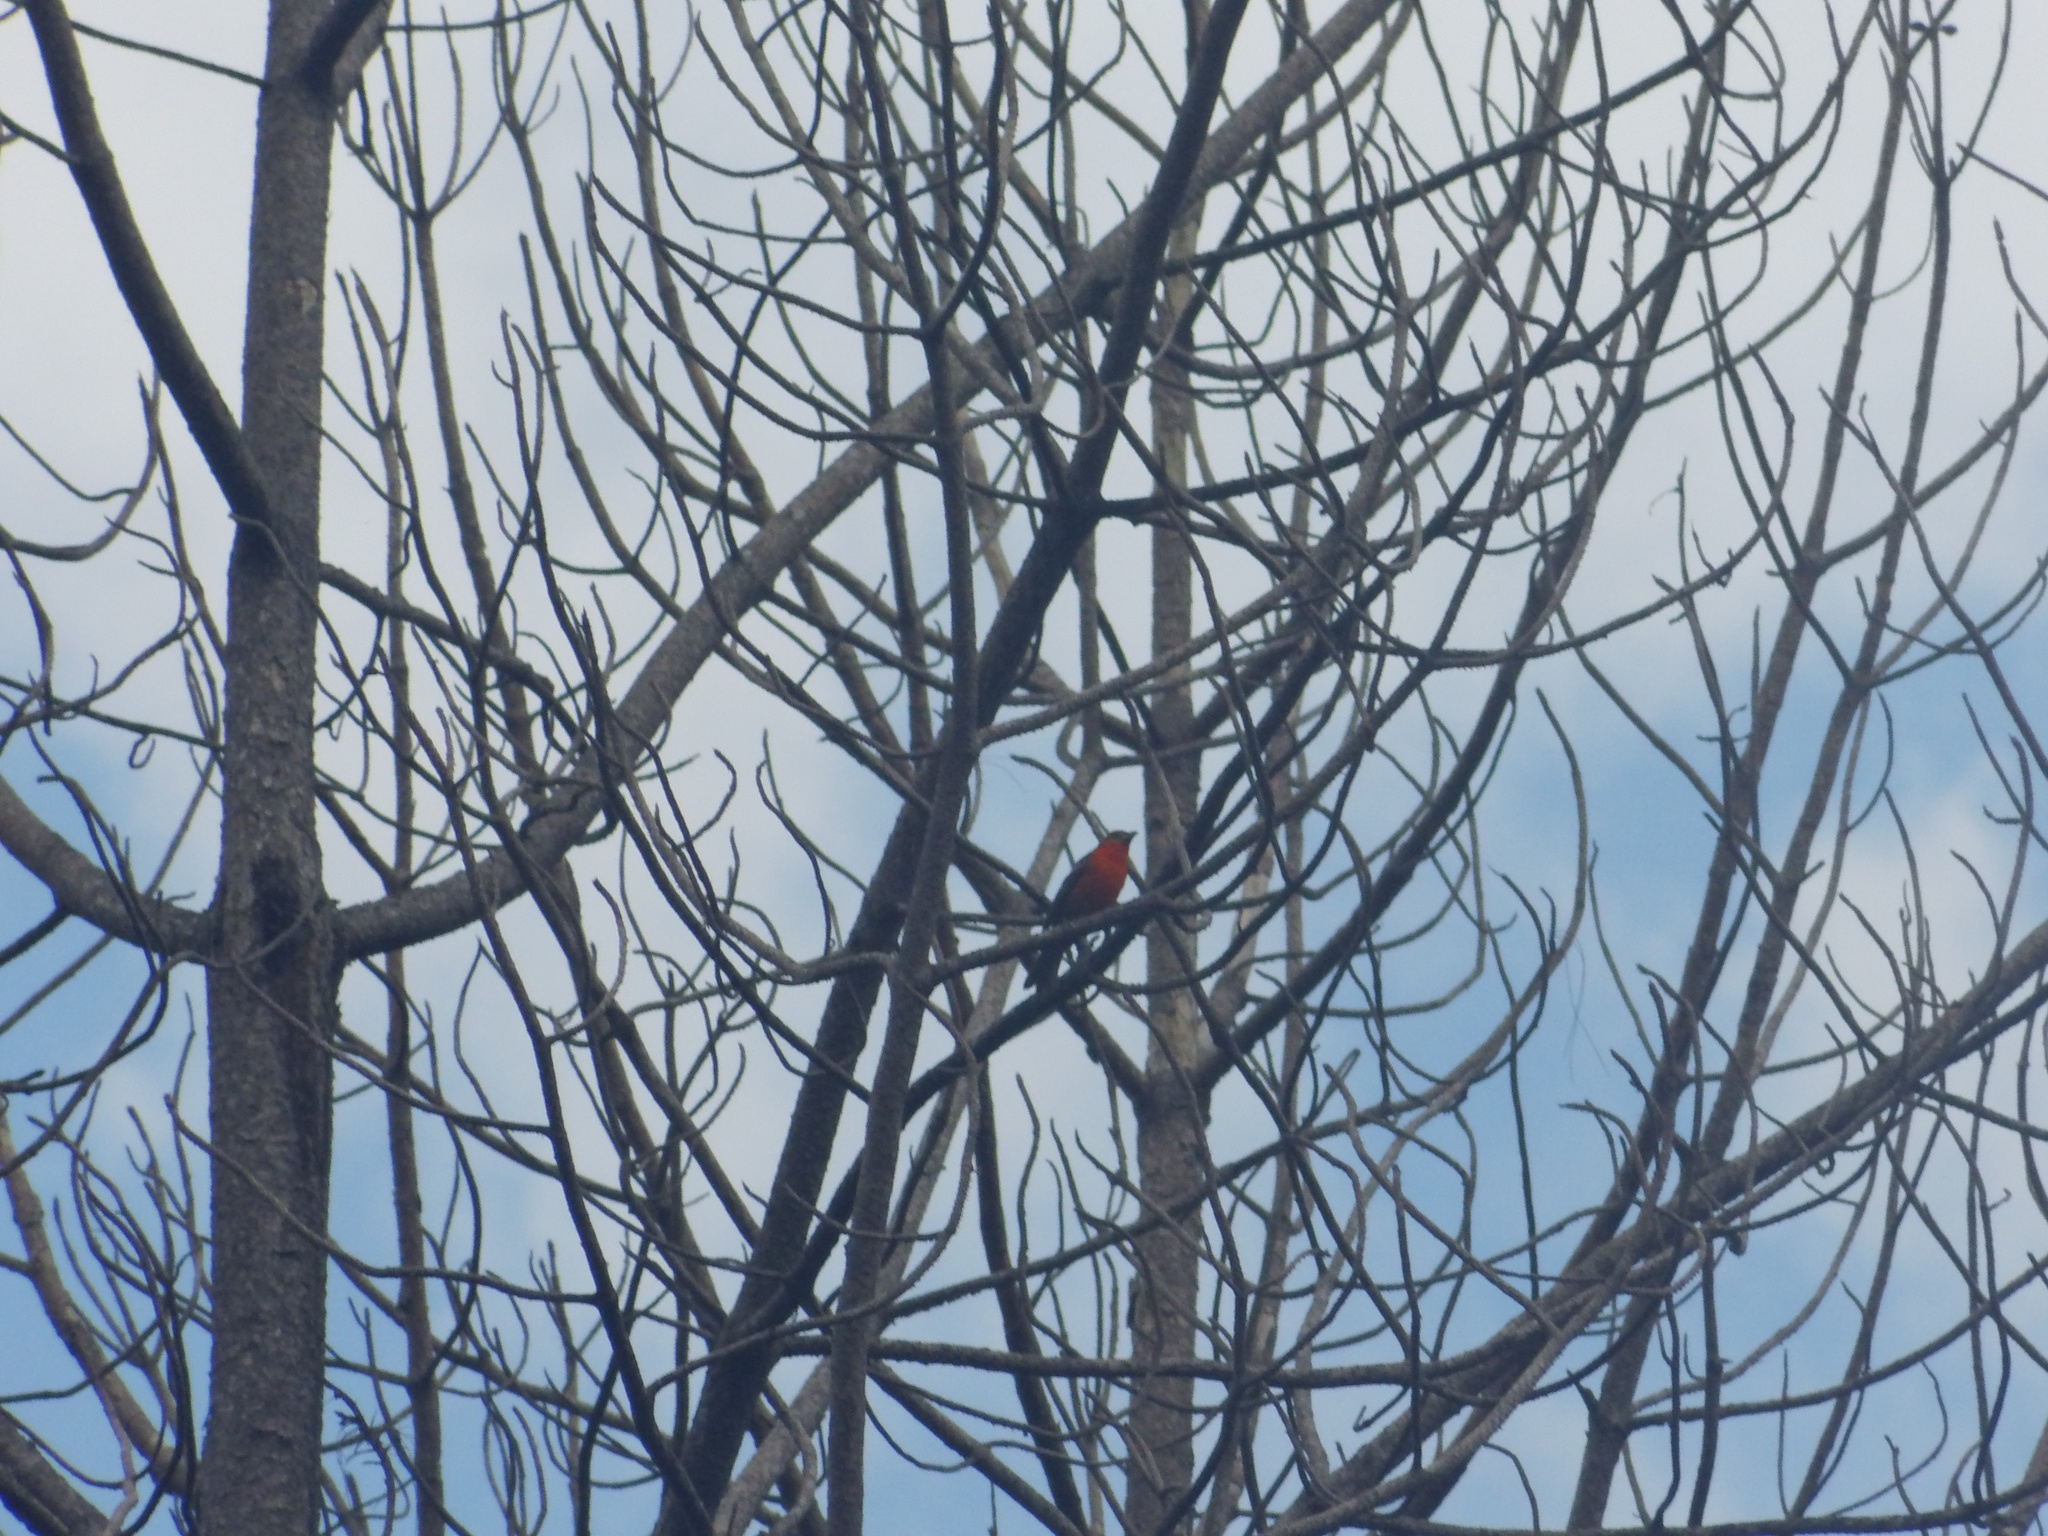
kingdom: Animalia
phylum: Chordata
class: Aves
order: Passeriformes
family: Cardinalidae
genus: Piranga
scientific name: Piranga bidentata
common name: Flame-colored tanager
